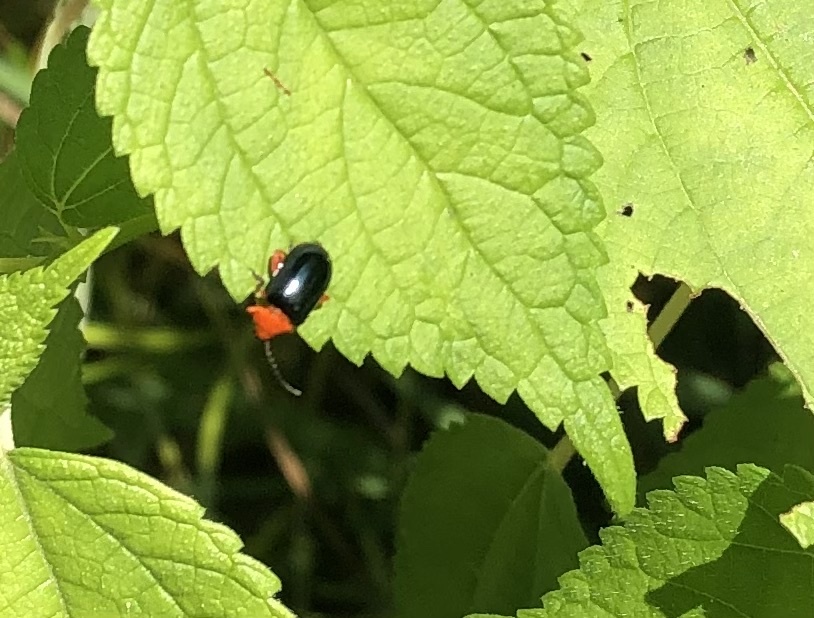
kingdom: Animalia
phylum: Arthropoda
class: Insecta
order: Coleoptera
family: Chrysomelidae
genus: Asphaera
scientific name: Asphaera lustrans
